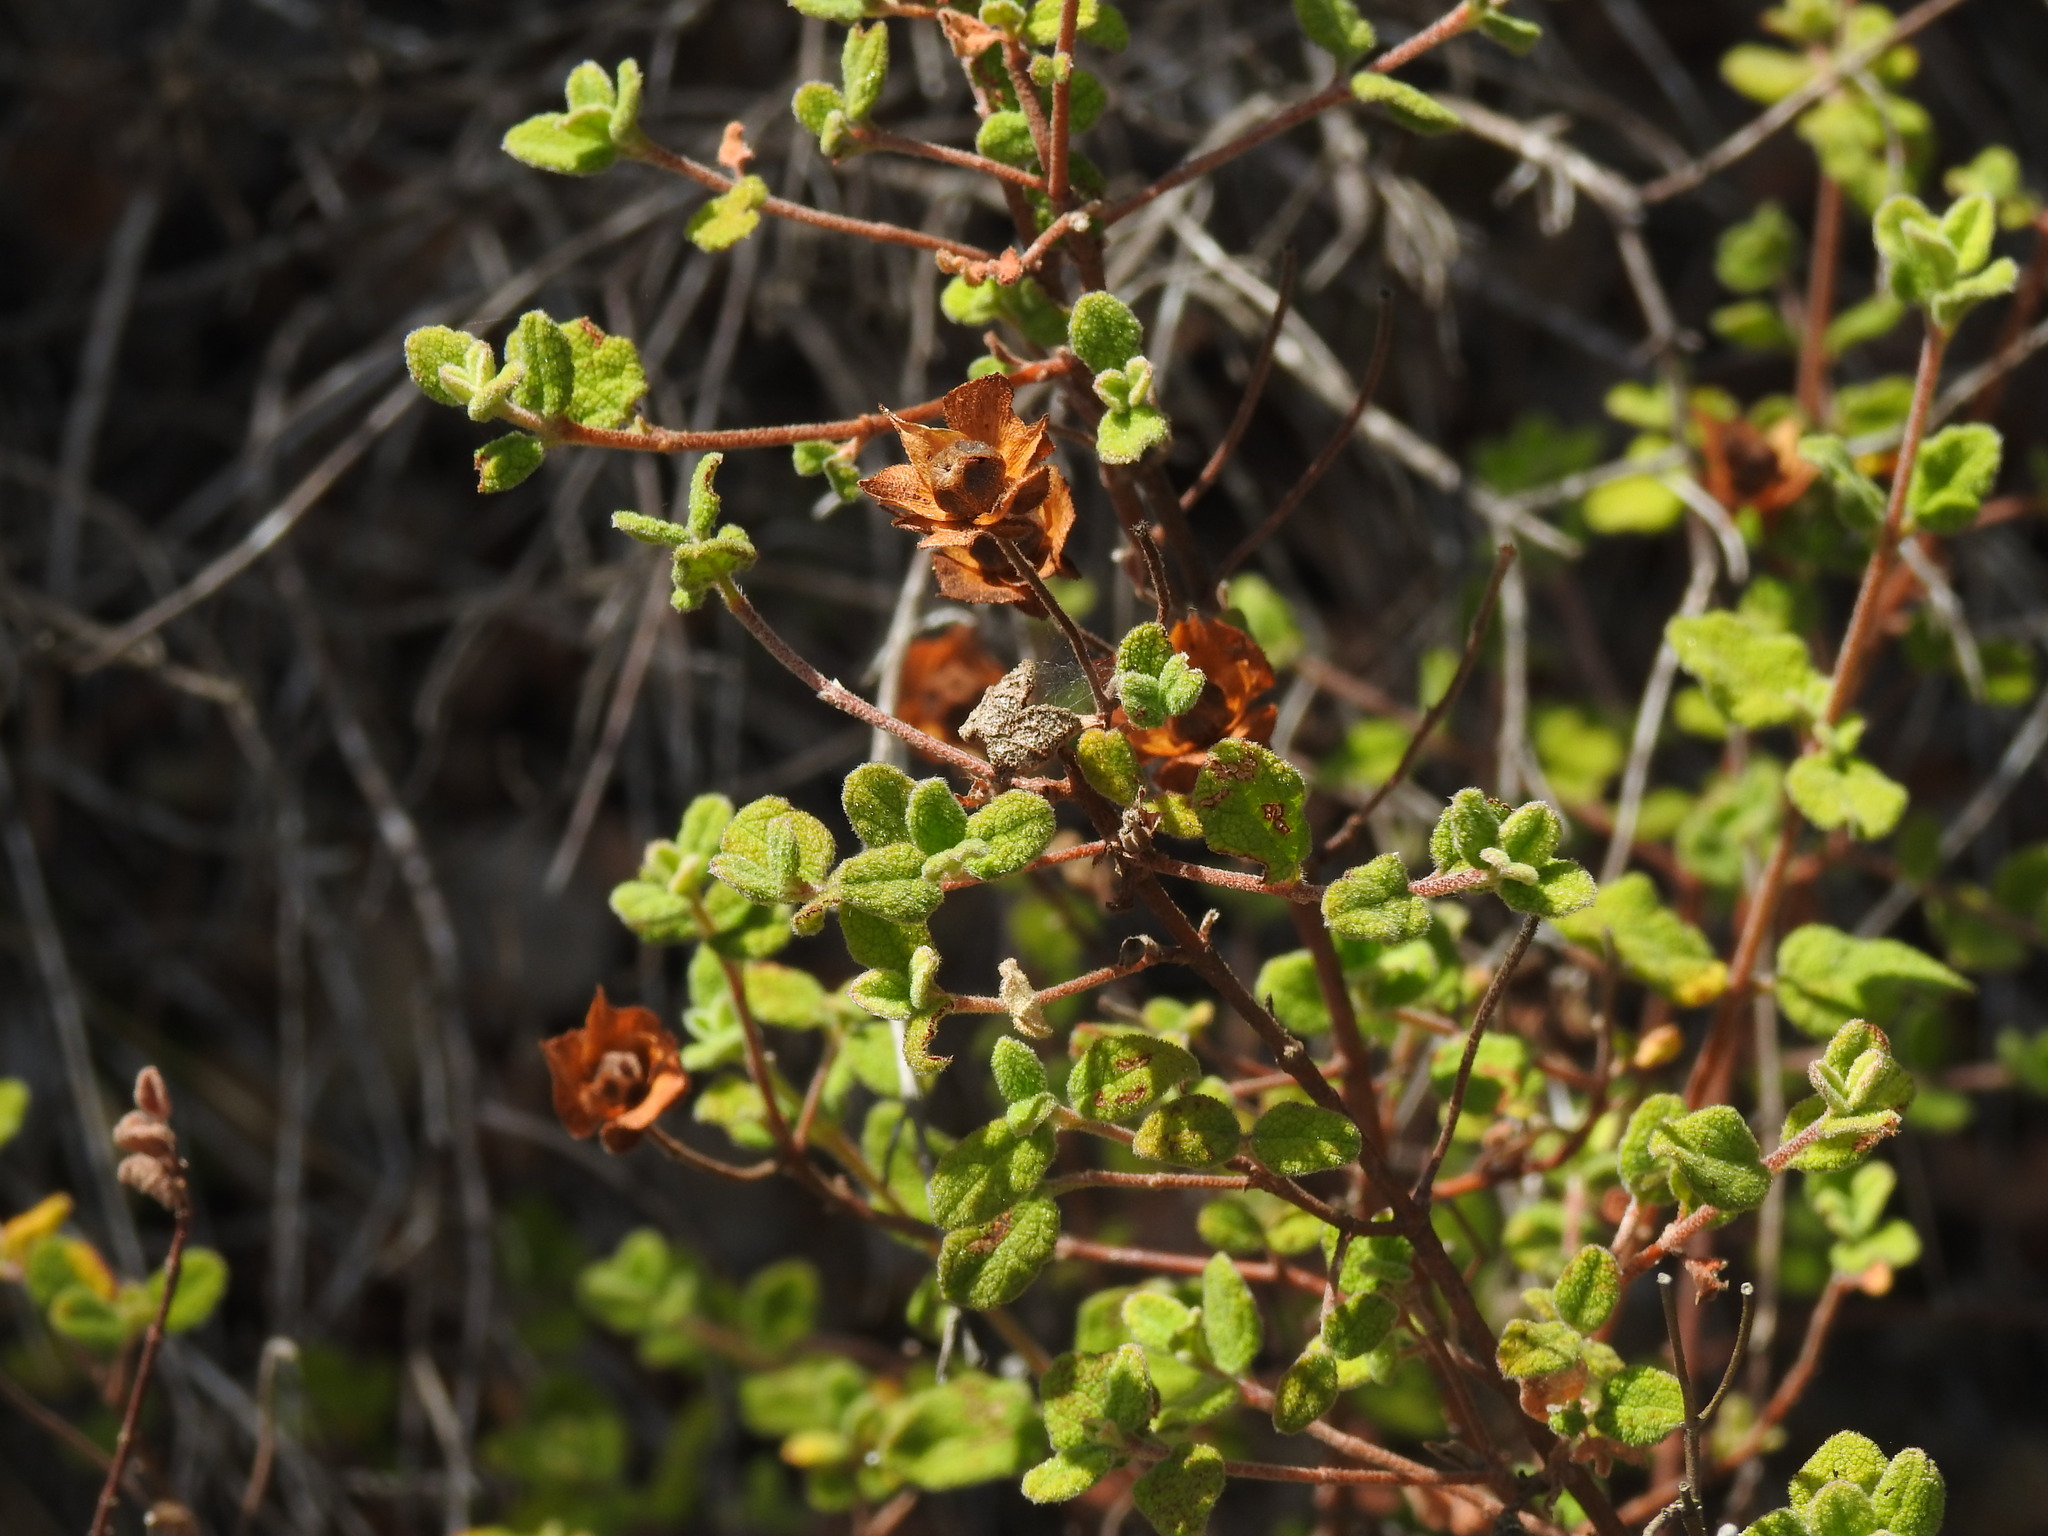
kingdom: Plantae
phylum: Tracheophyta
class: Magnoliopsida
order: Malvales
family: Cistaceae
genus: Cistus
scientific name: Cistus salviifolius
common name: Salvia cistus
